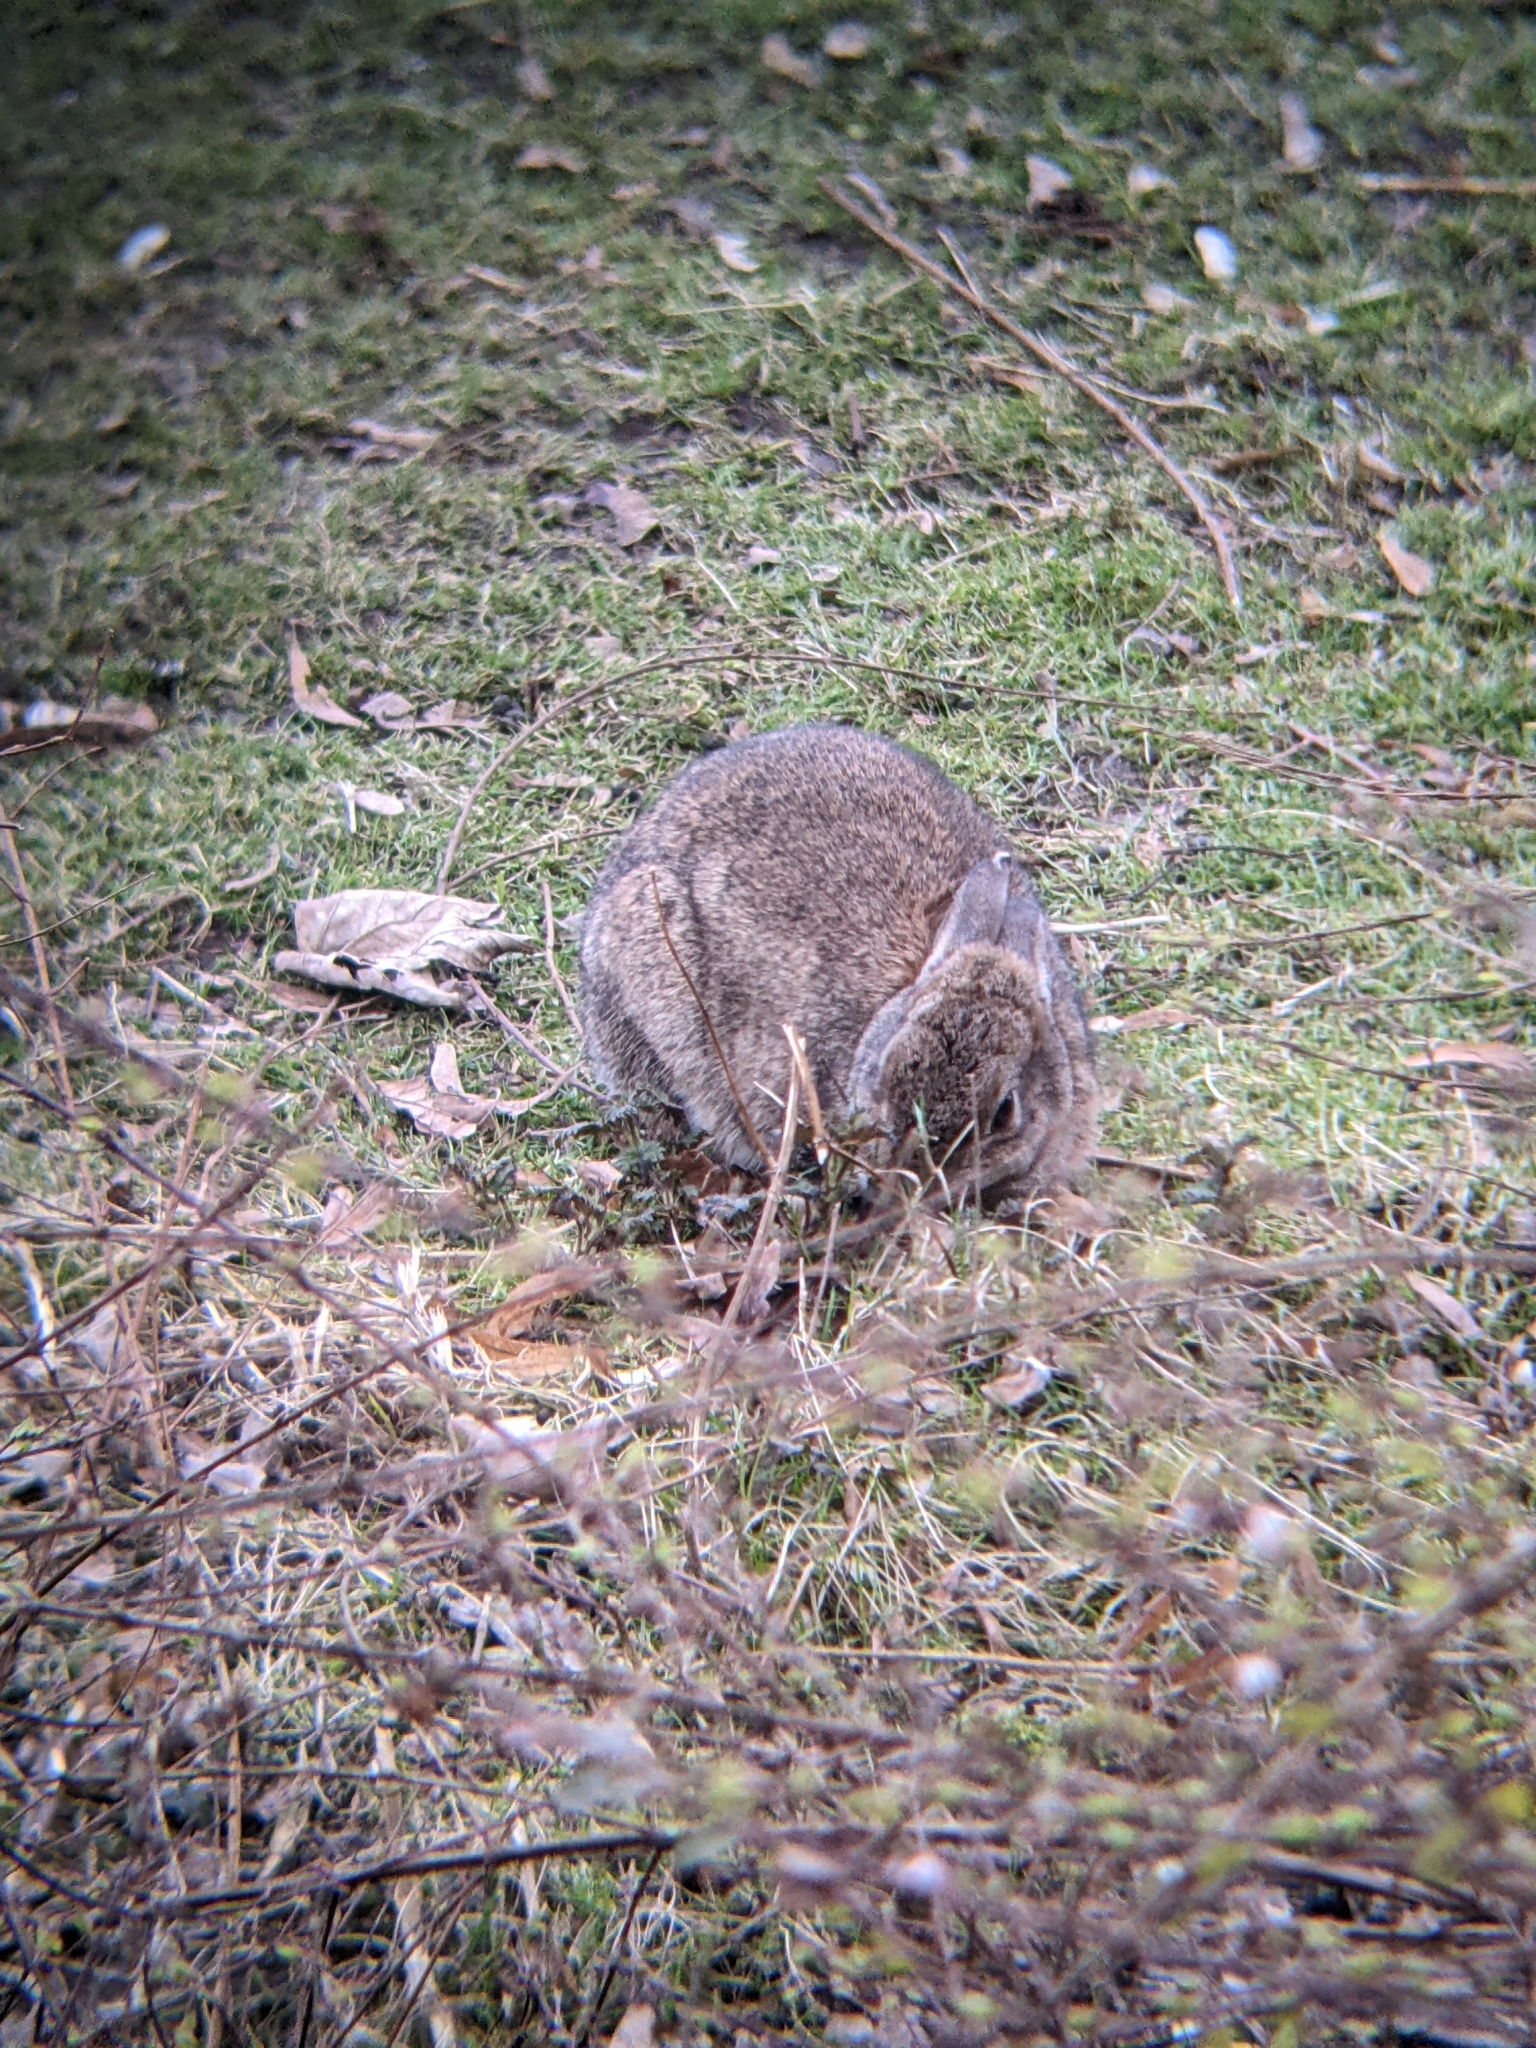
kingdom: Animalia
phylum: Chordata
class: Mammalia
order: Lagomorpha
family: Leporidae
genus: Oryctolagus
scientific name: Oryctolagus cuniculus
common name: European rabbit
